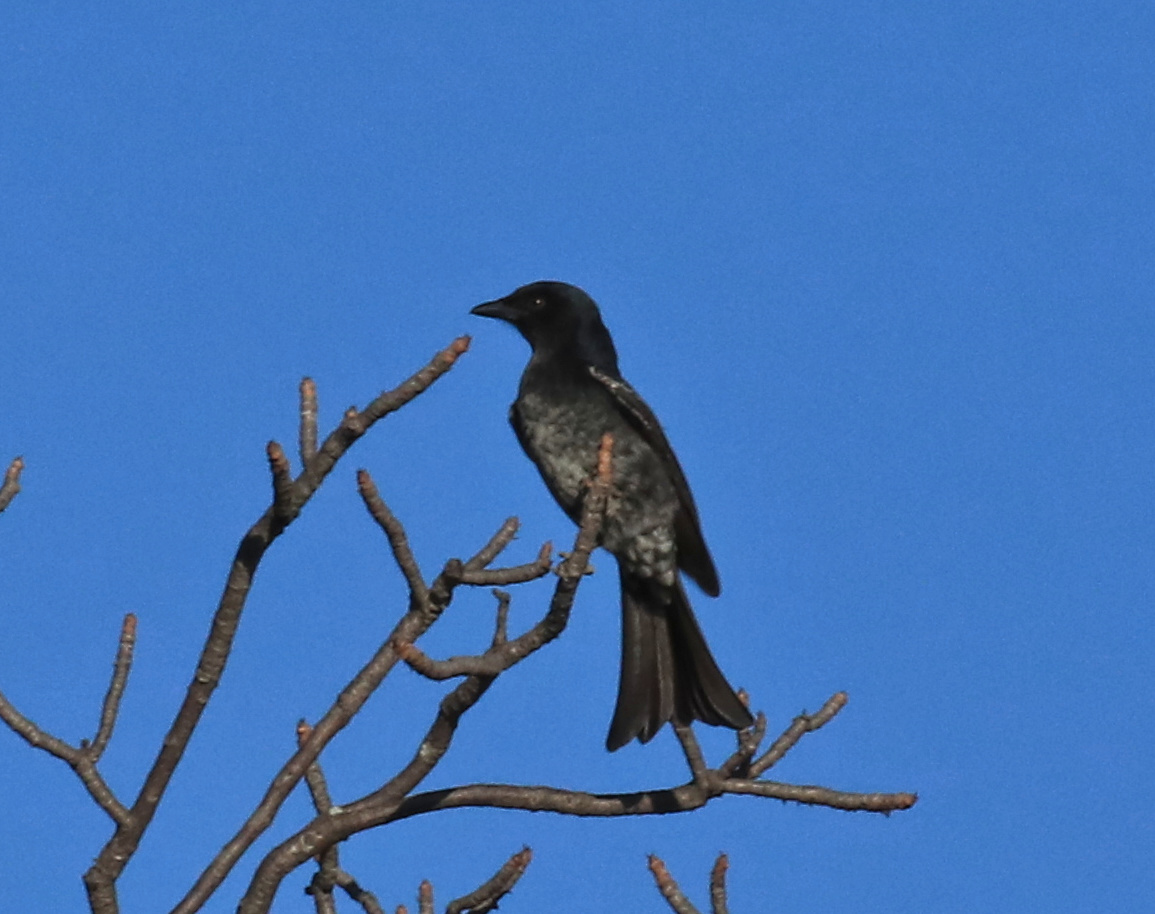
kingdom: Animalia
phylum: Chordata
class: Aves
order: Passeriformes
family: Dicruridae
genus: Dicrurus
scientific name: Dicrurus adsimilis
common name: Fork-tailed drongo
